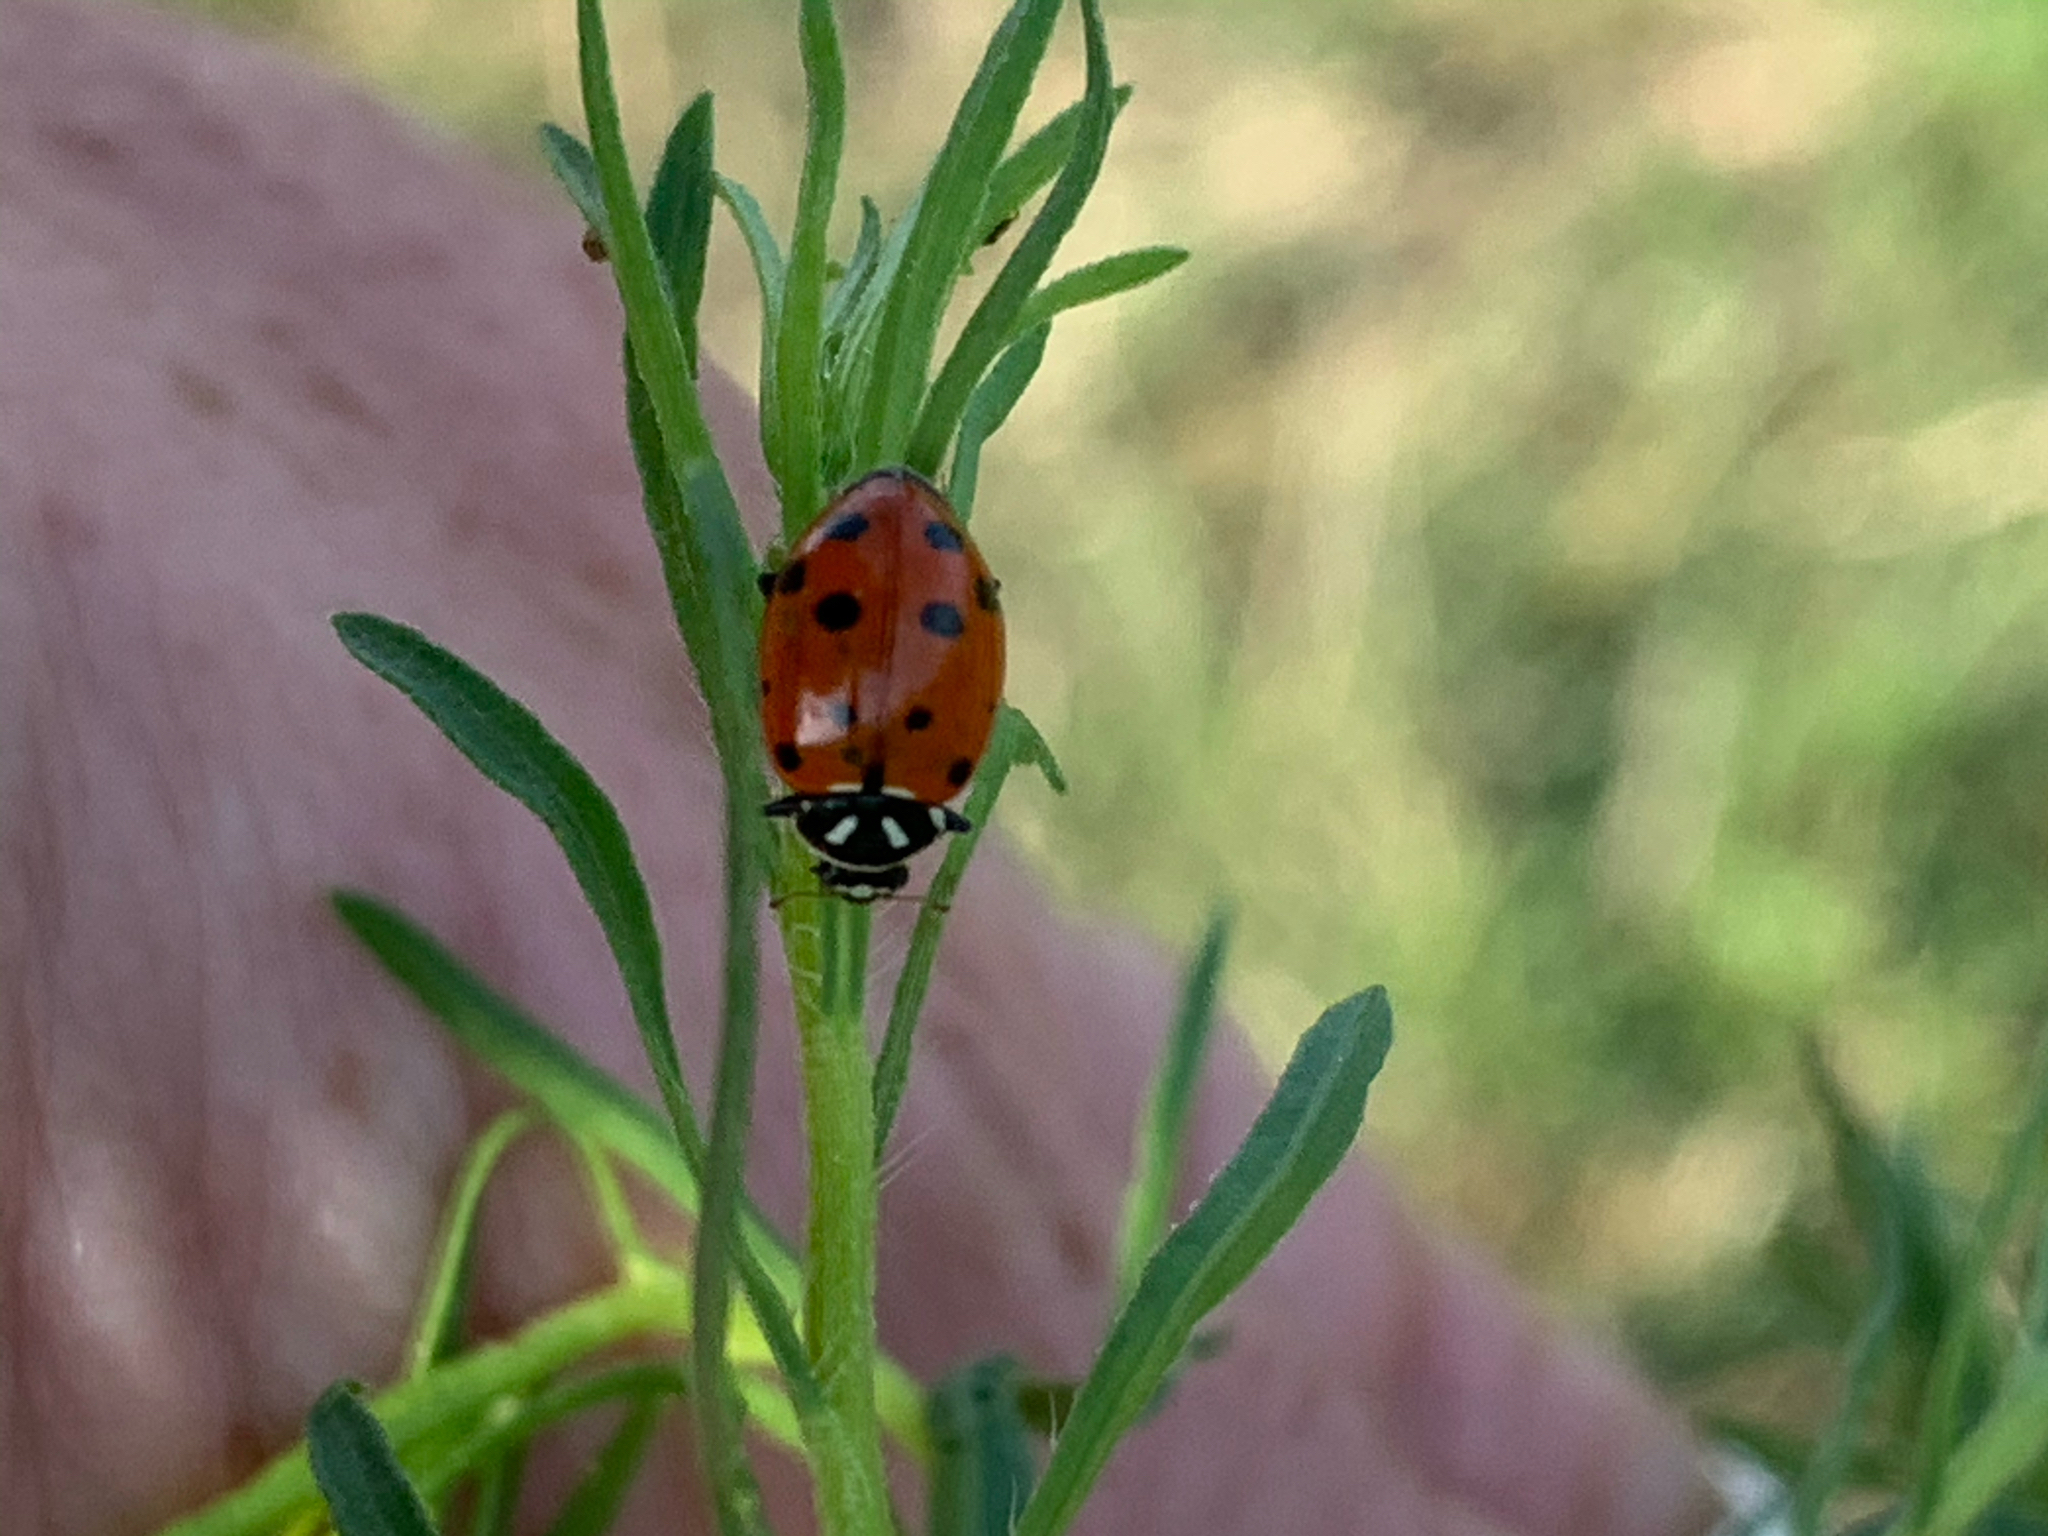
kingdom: Animalia
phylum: Arthropoda
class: Insecta
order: Coleoptera
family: Coccinellidae
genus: Hippodamia
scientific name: Hippodamia convergens
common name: Convergent lady beetle
